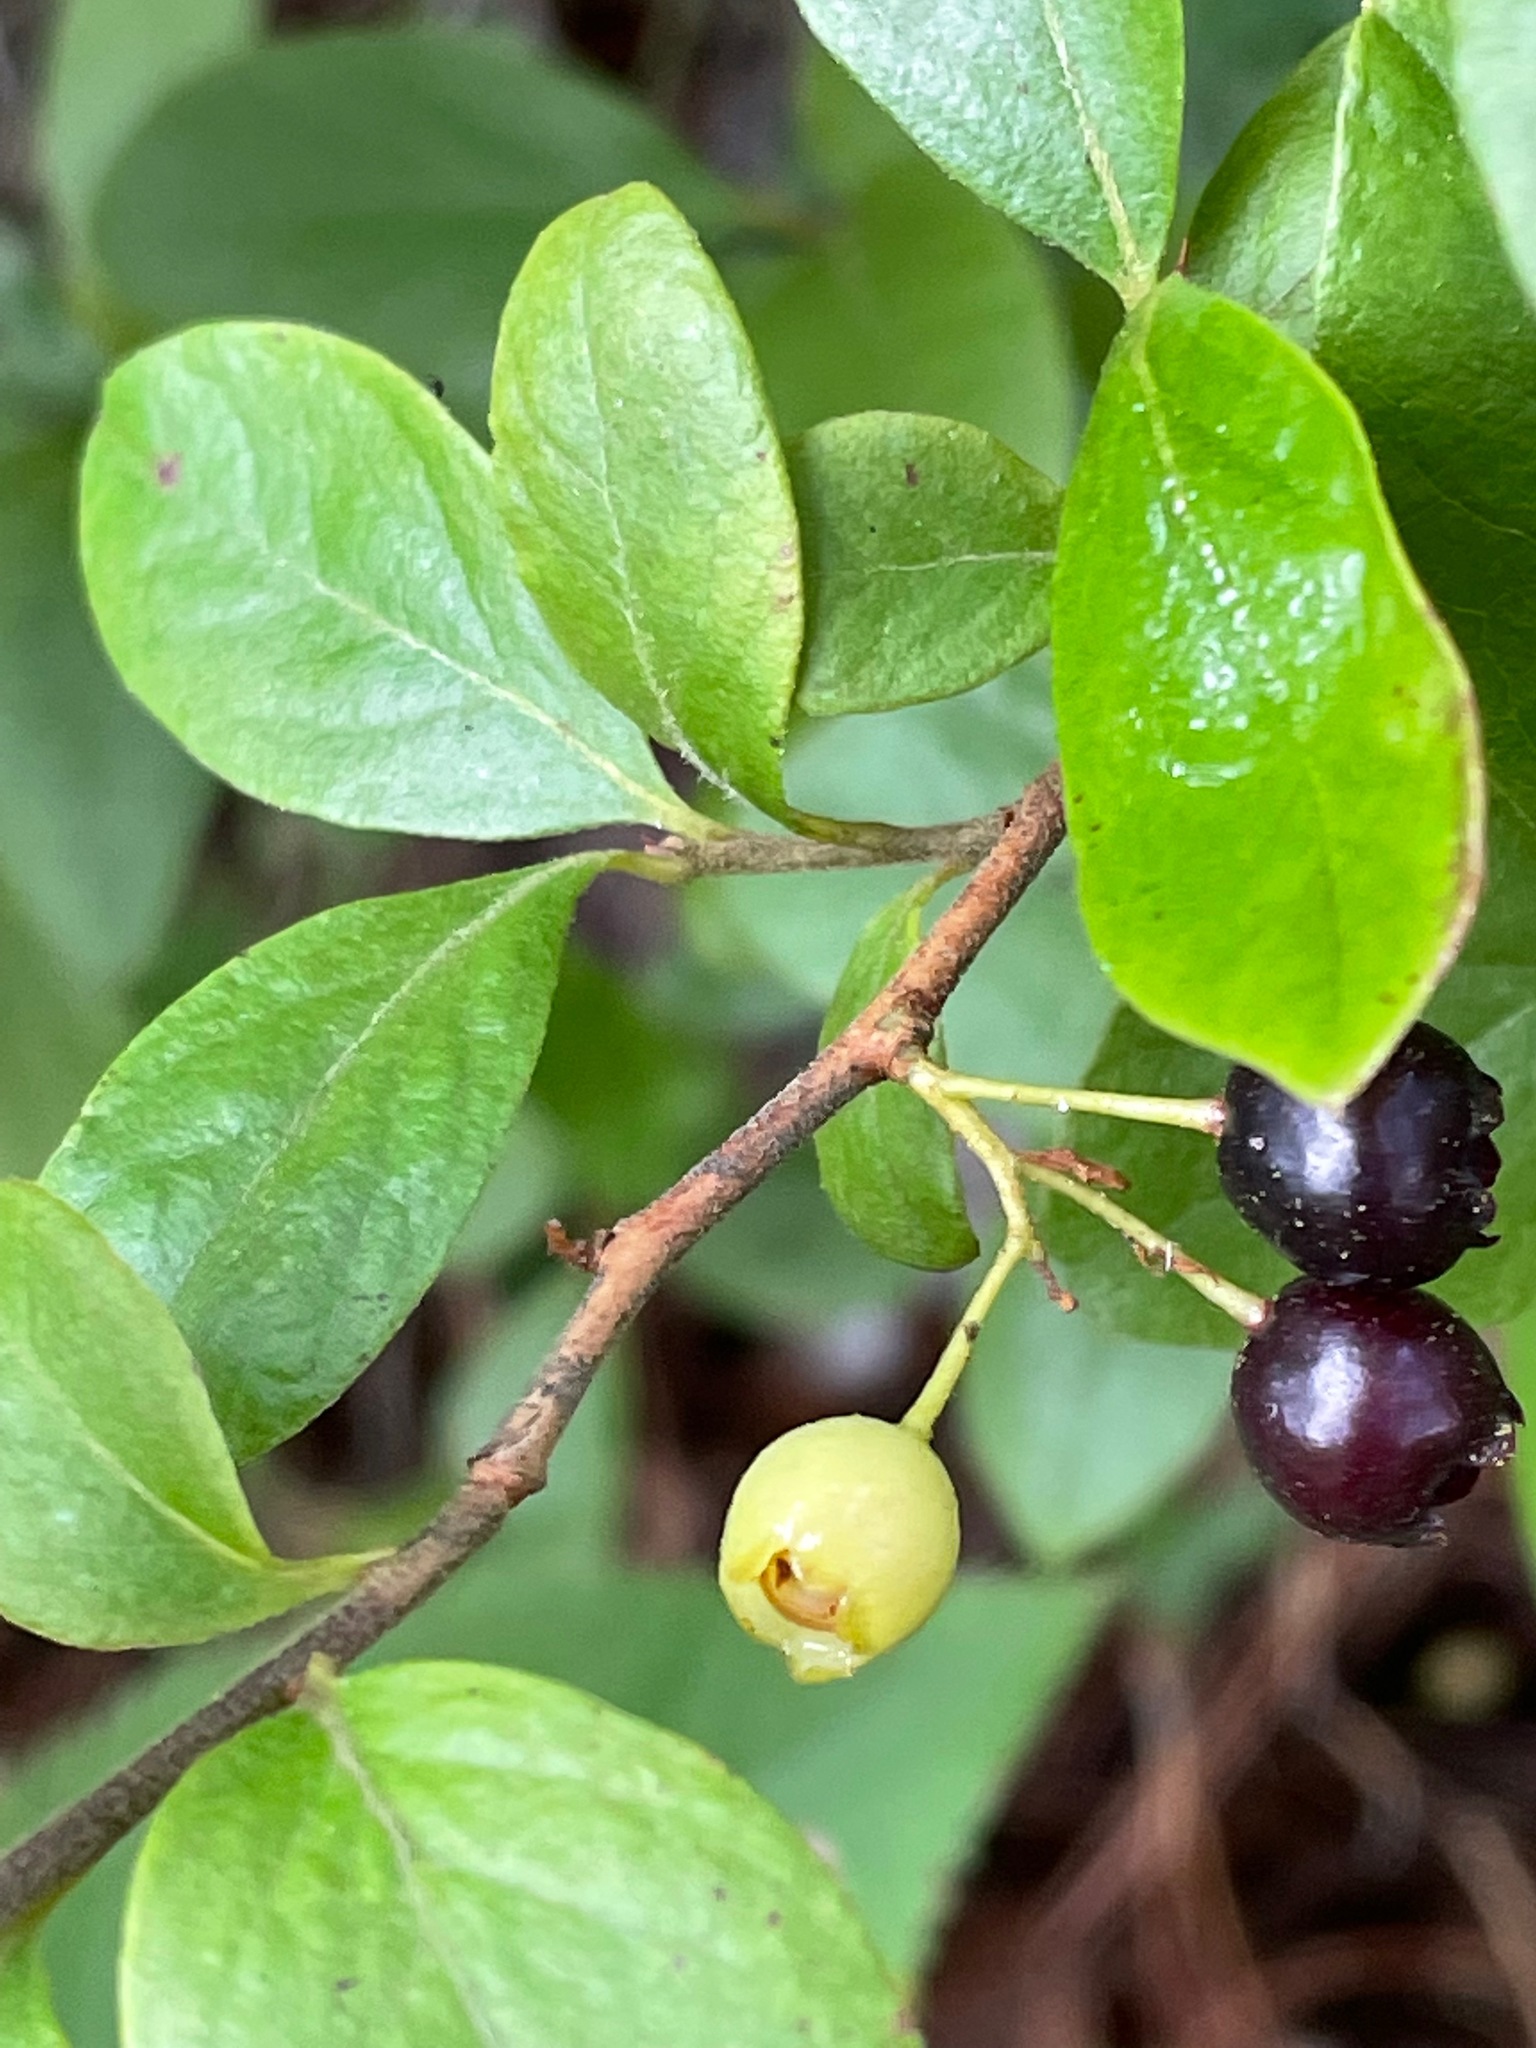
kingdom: Plantae
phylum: Tracheophyta
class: Magnoliopsida
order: Ericales
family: Ericaceae
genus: Gaylussacia
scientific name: Gaylussacia baccata
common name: Black huckleberry
